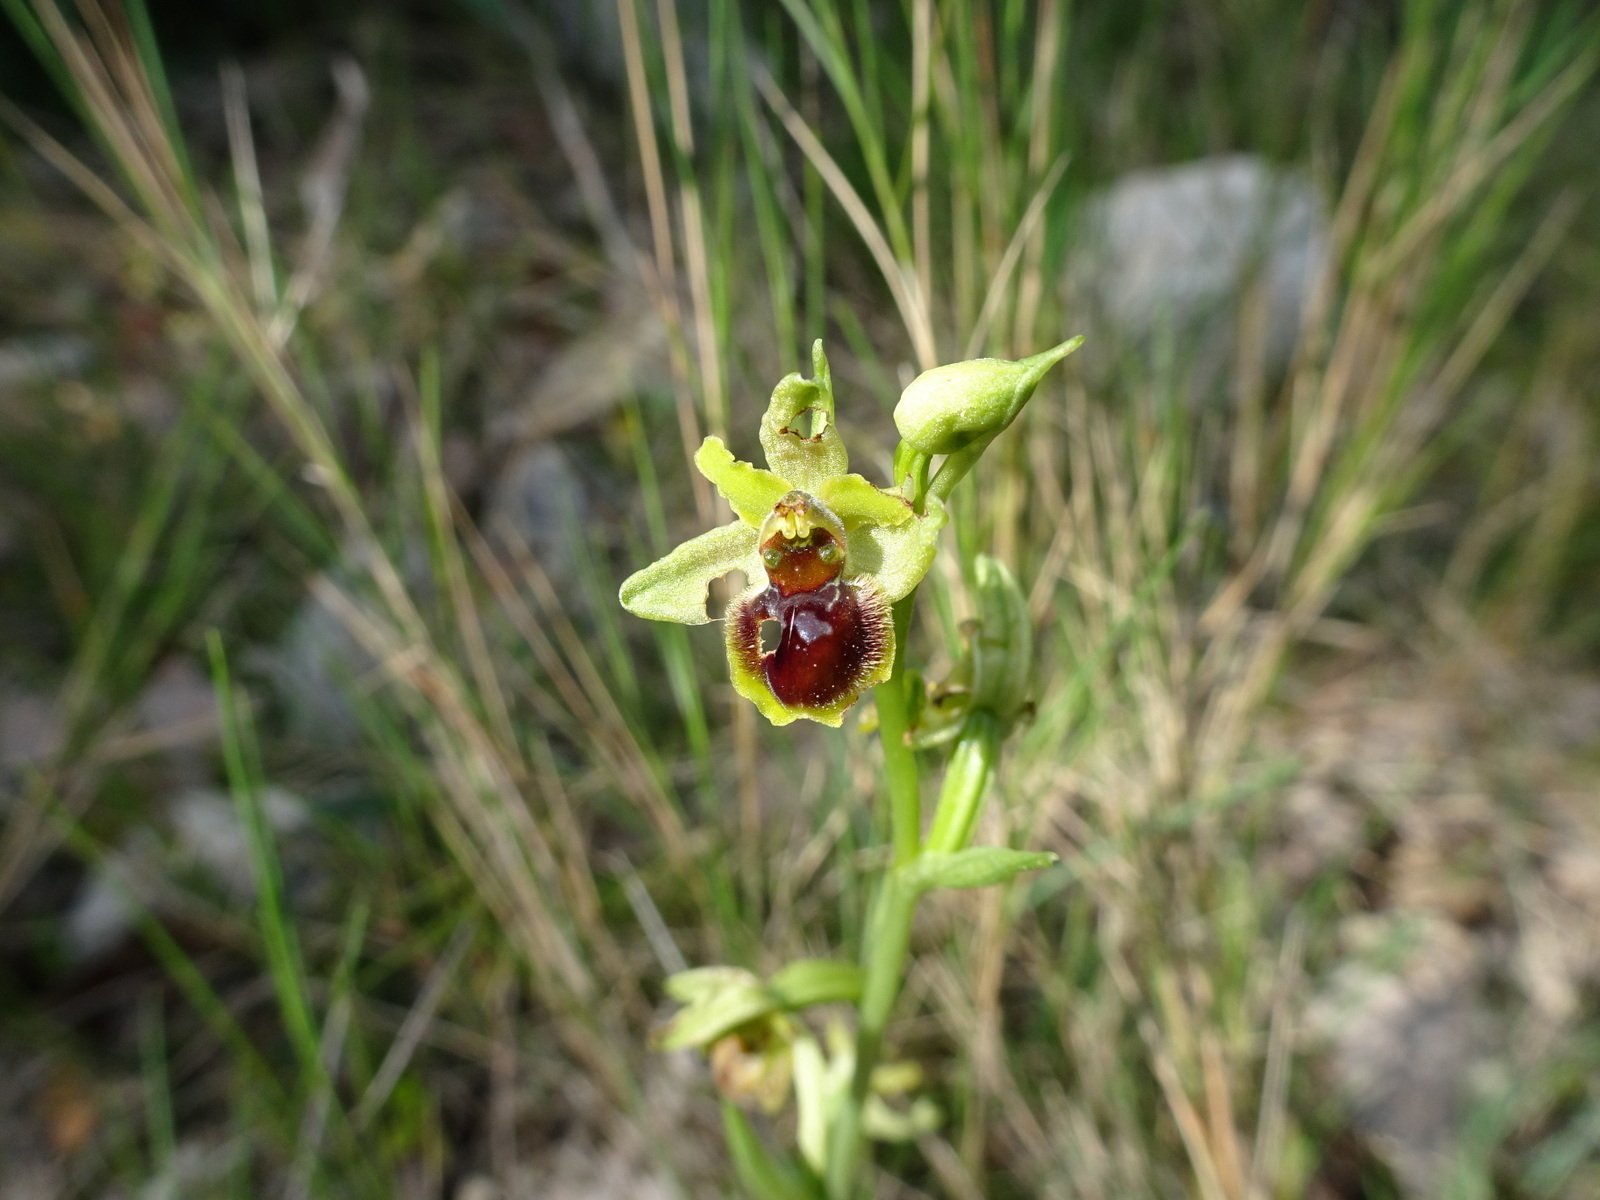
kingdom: Plantae
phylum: Tracheophyta
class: Liliopsida
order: Asparagales
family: Orchidaceae
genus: Ophrys
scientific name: Ophrys araneola
